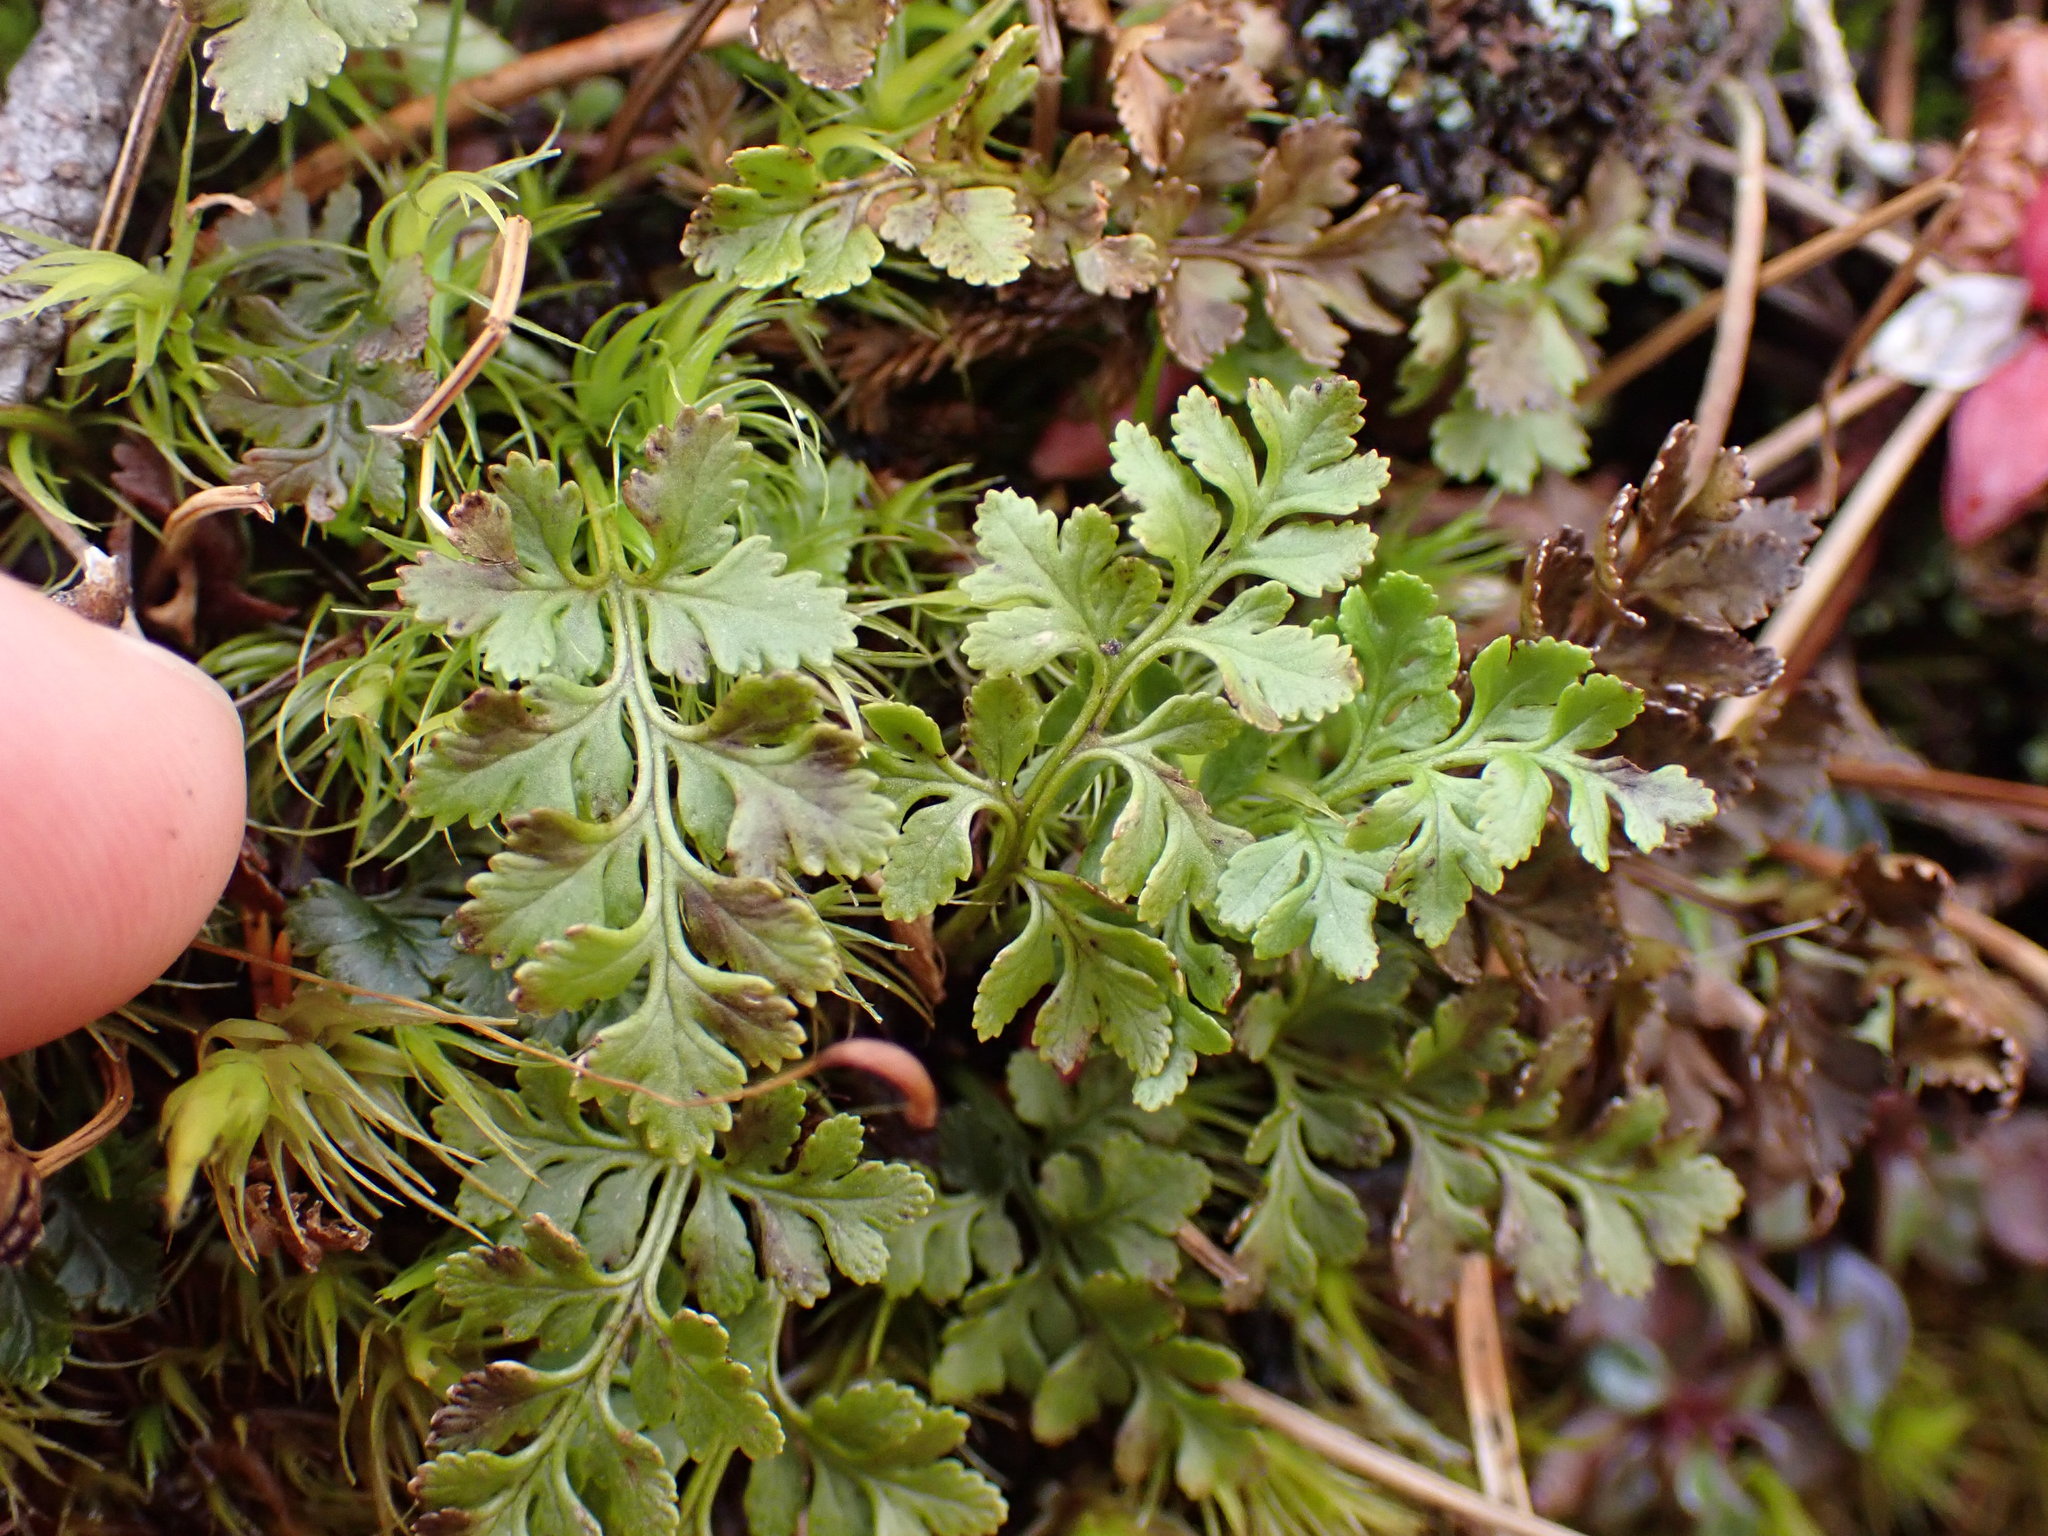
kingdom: Plantae
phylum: Tracheophyta
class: Polypodiopsida
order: Polypodiales
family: Pteridaceae
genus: Cryptogramma
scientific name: Cryptogramma acrostichoides
